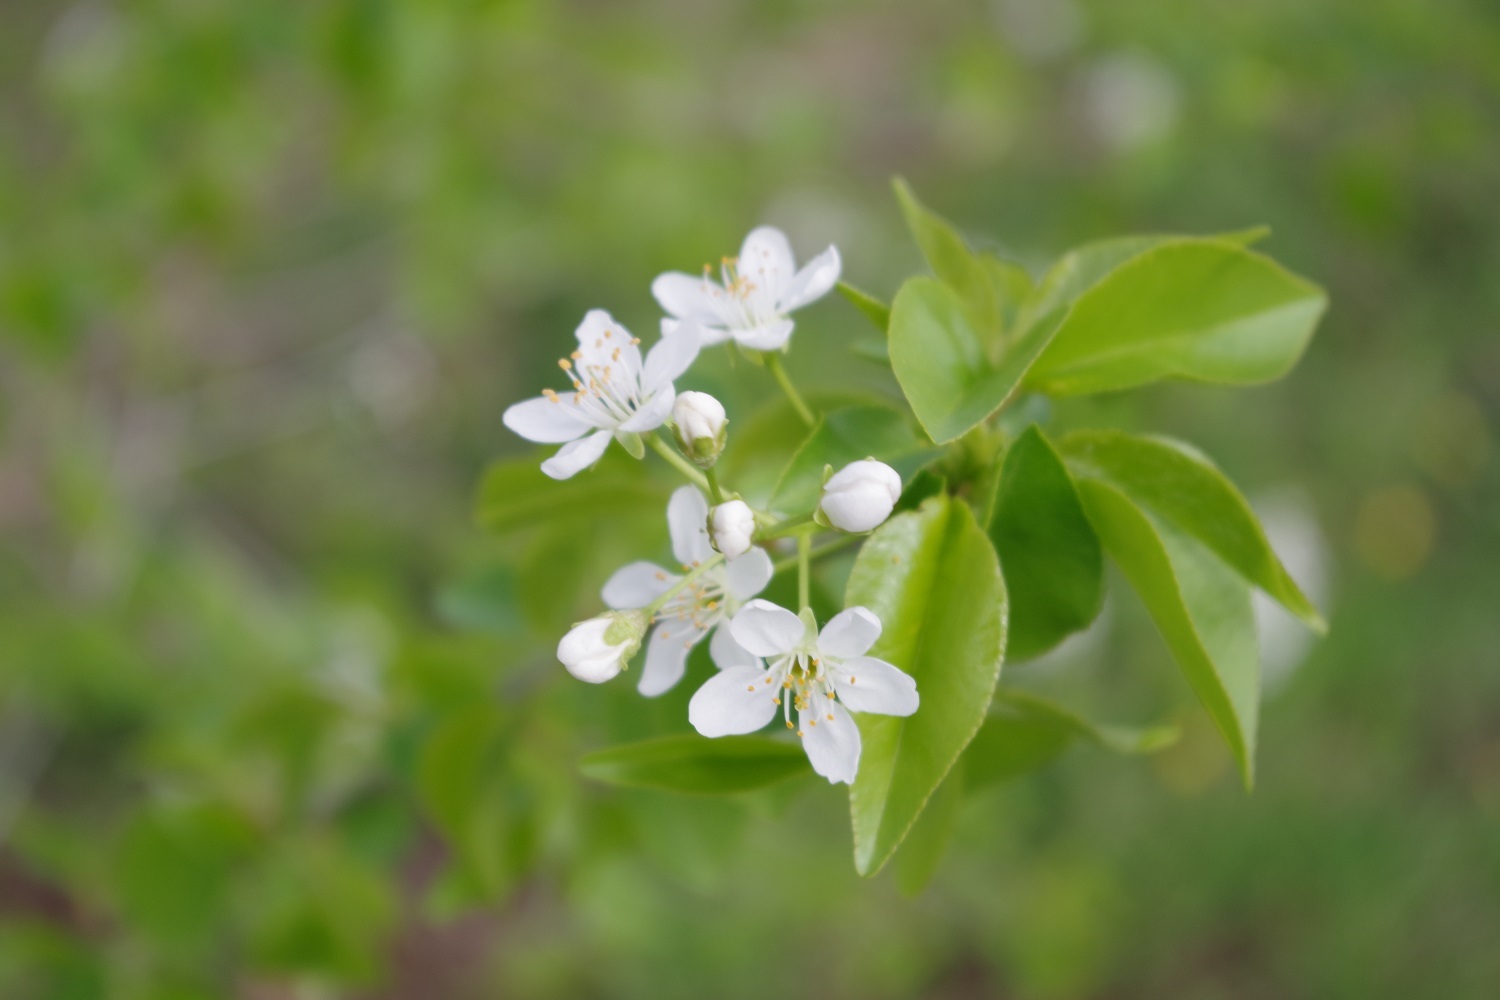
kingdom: Plantae
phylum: Tracheophyta
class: Magnoliopsida
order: Rosales
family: Rosaceae
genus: Prunus
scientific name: Prunus mahaleb
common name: Mahaleb cherry
